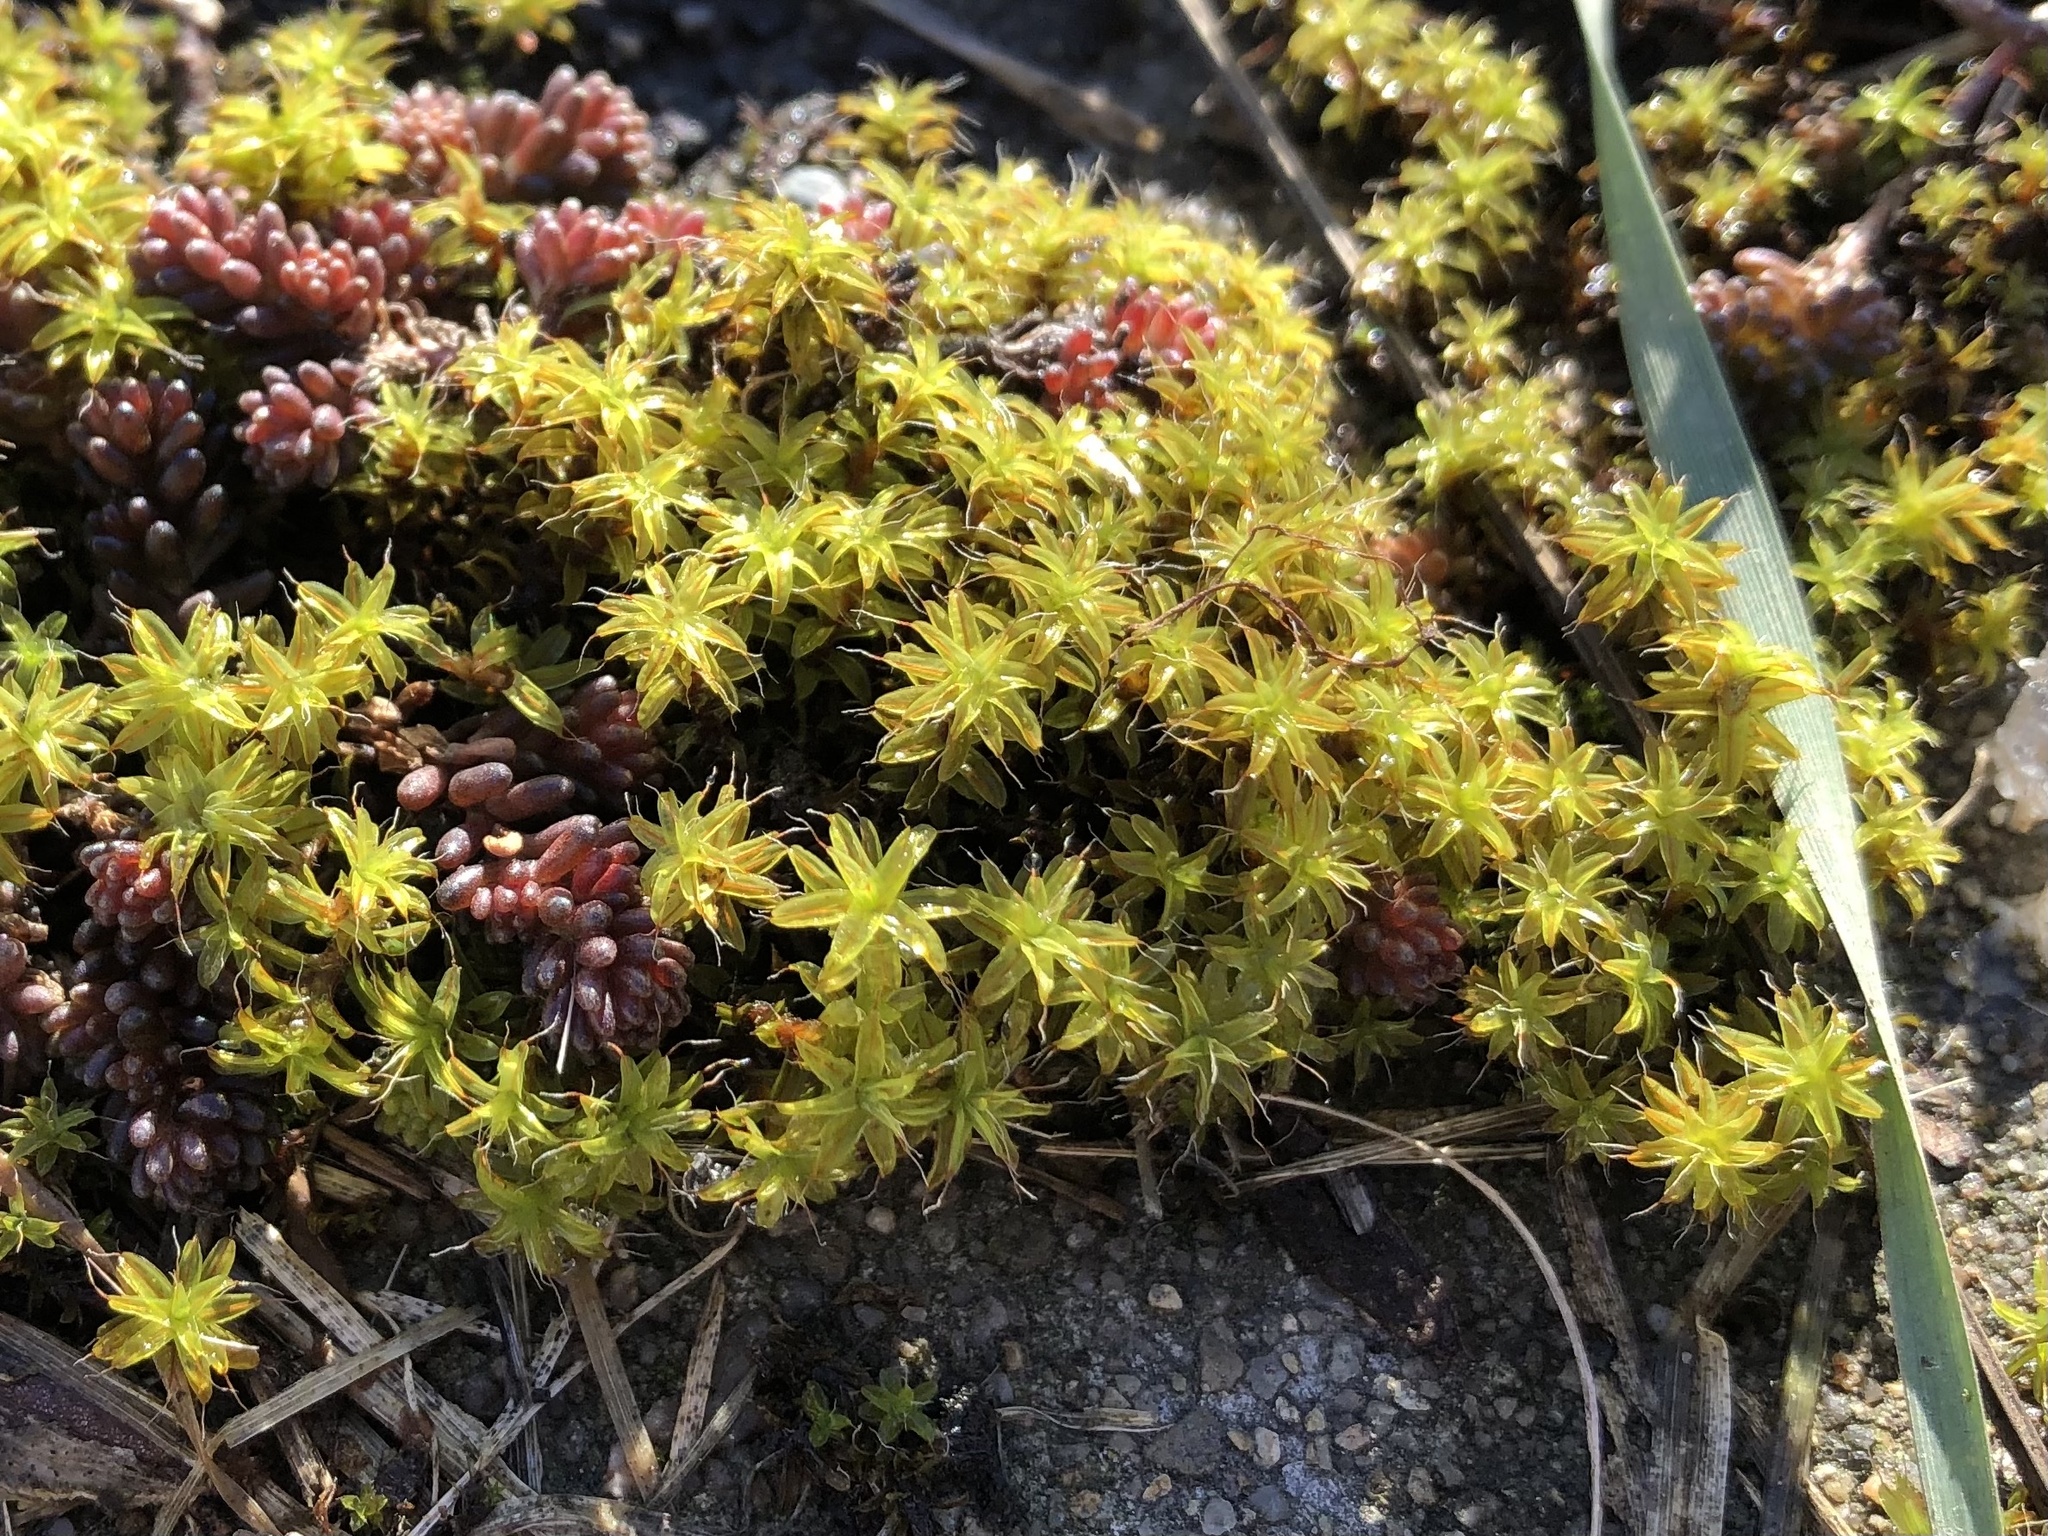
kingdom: Plantae
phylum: Bryophyta
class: Bryopsida
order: Pottiales
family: Pottiaceae
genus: Syntrichia
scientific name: Syntrichia ruralis
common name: Sidewalk screw moss
